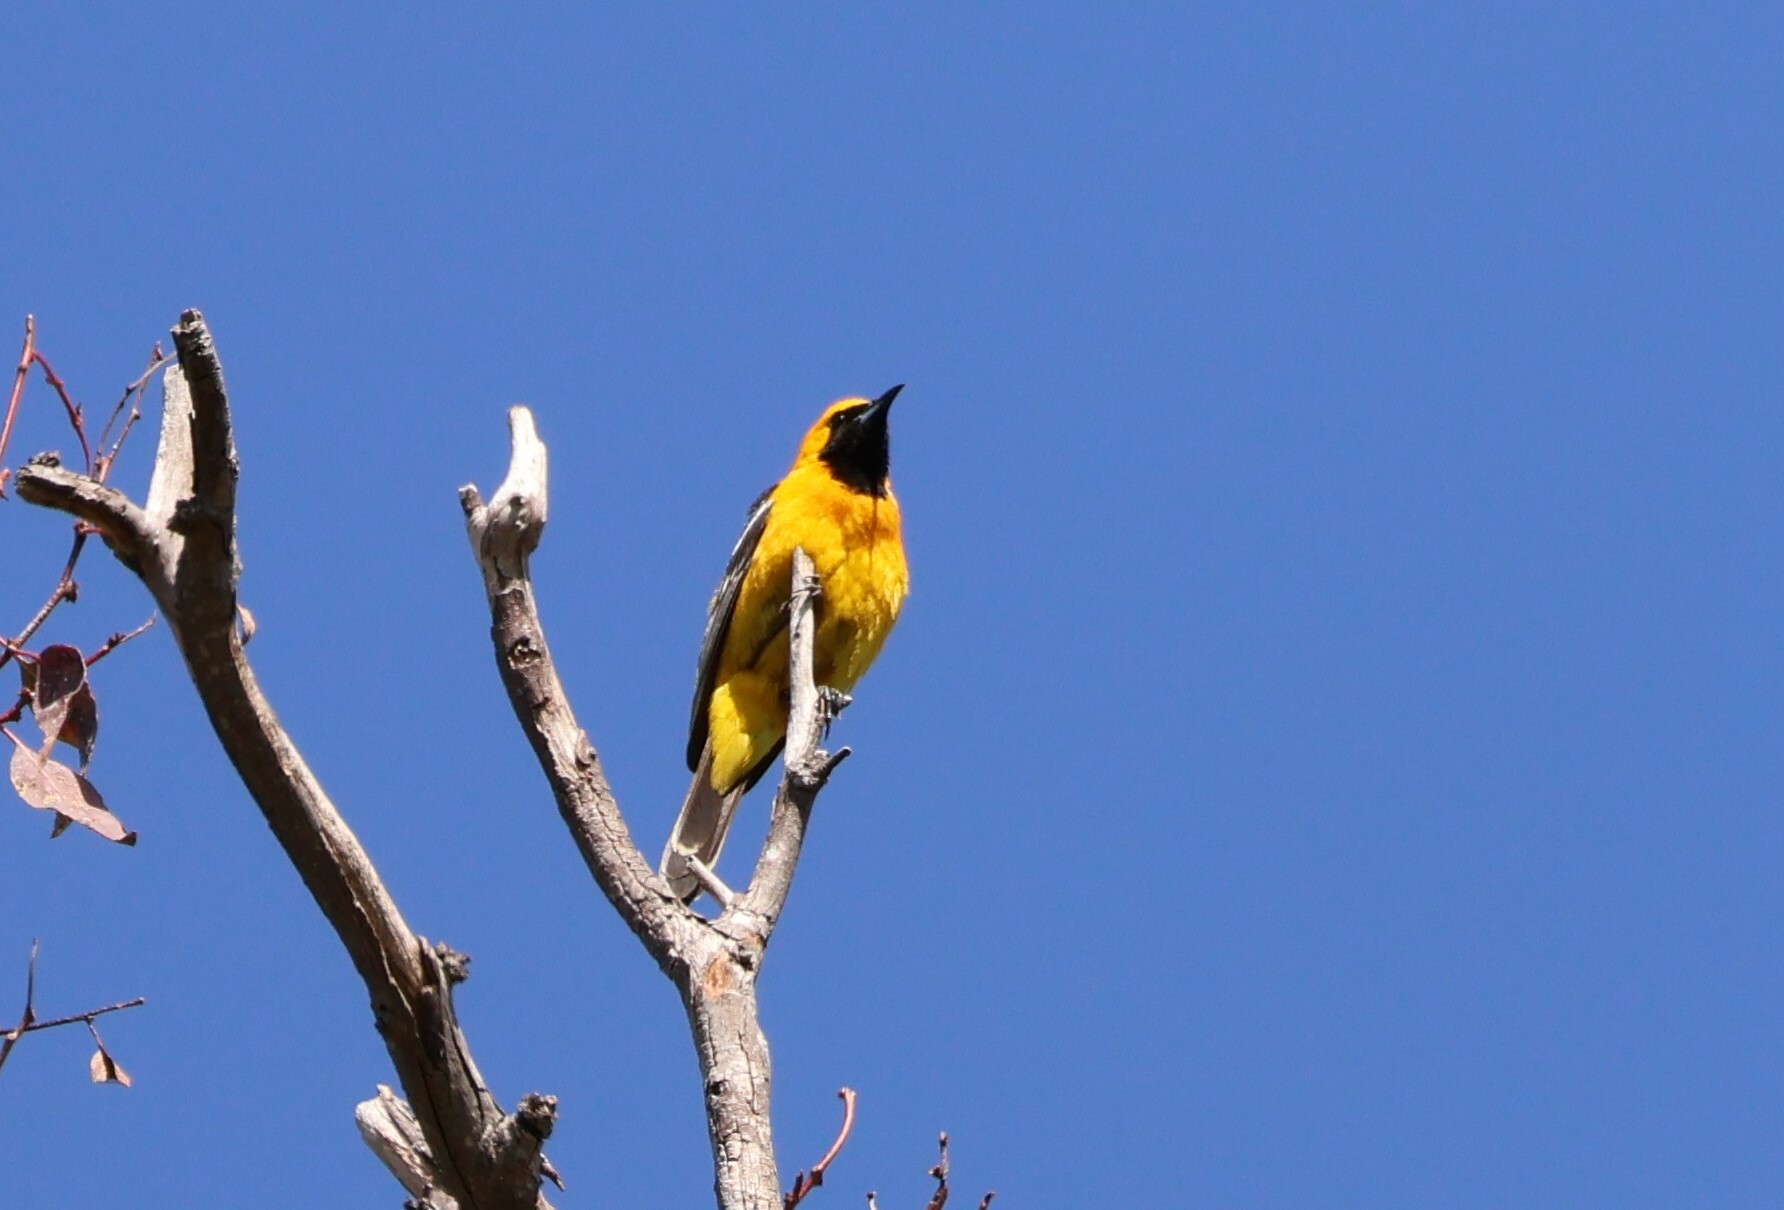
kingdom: Animalia
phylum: Chordata
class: Aves
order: Passeriformes
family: Icteridae
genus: Icterus
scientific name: Icterus cucullatus
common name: Hooded oriole
